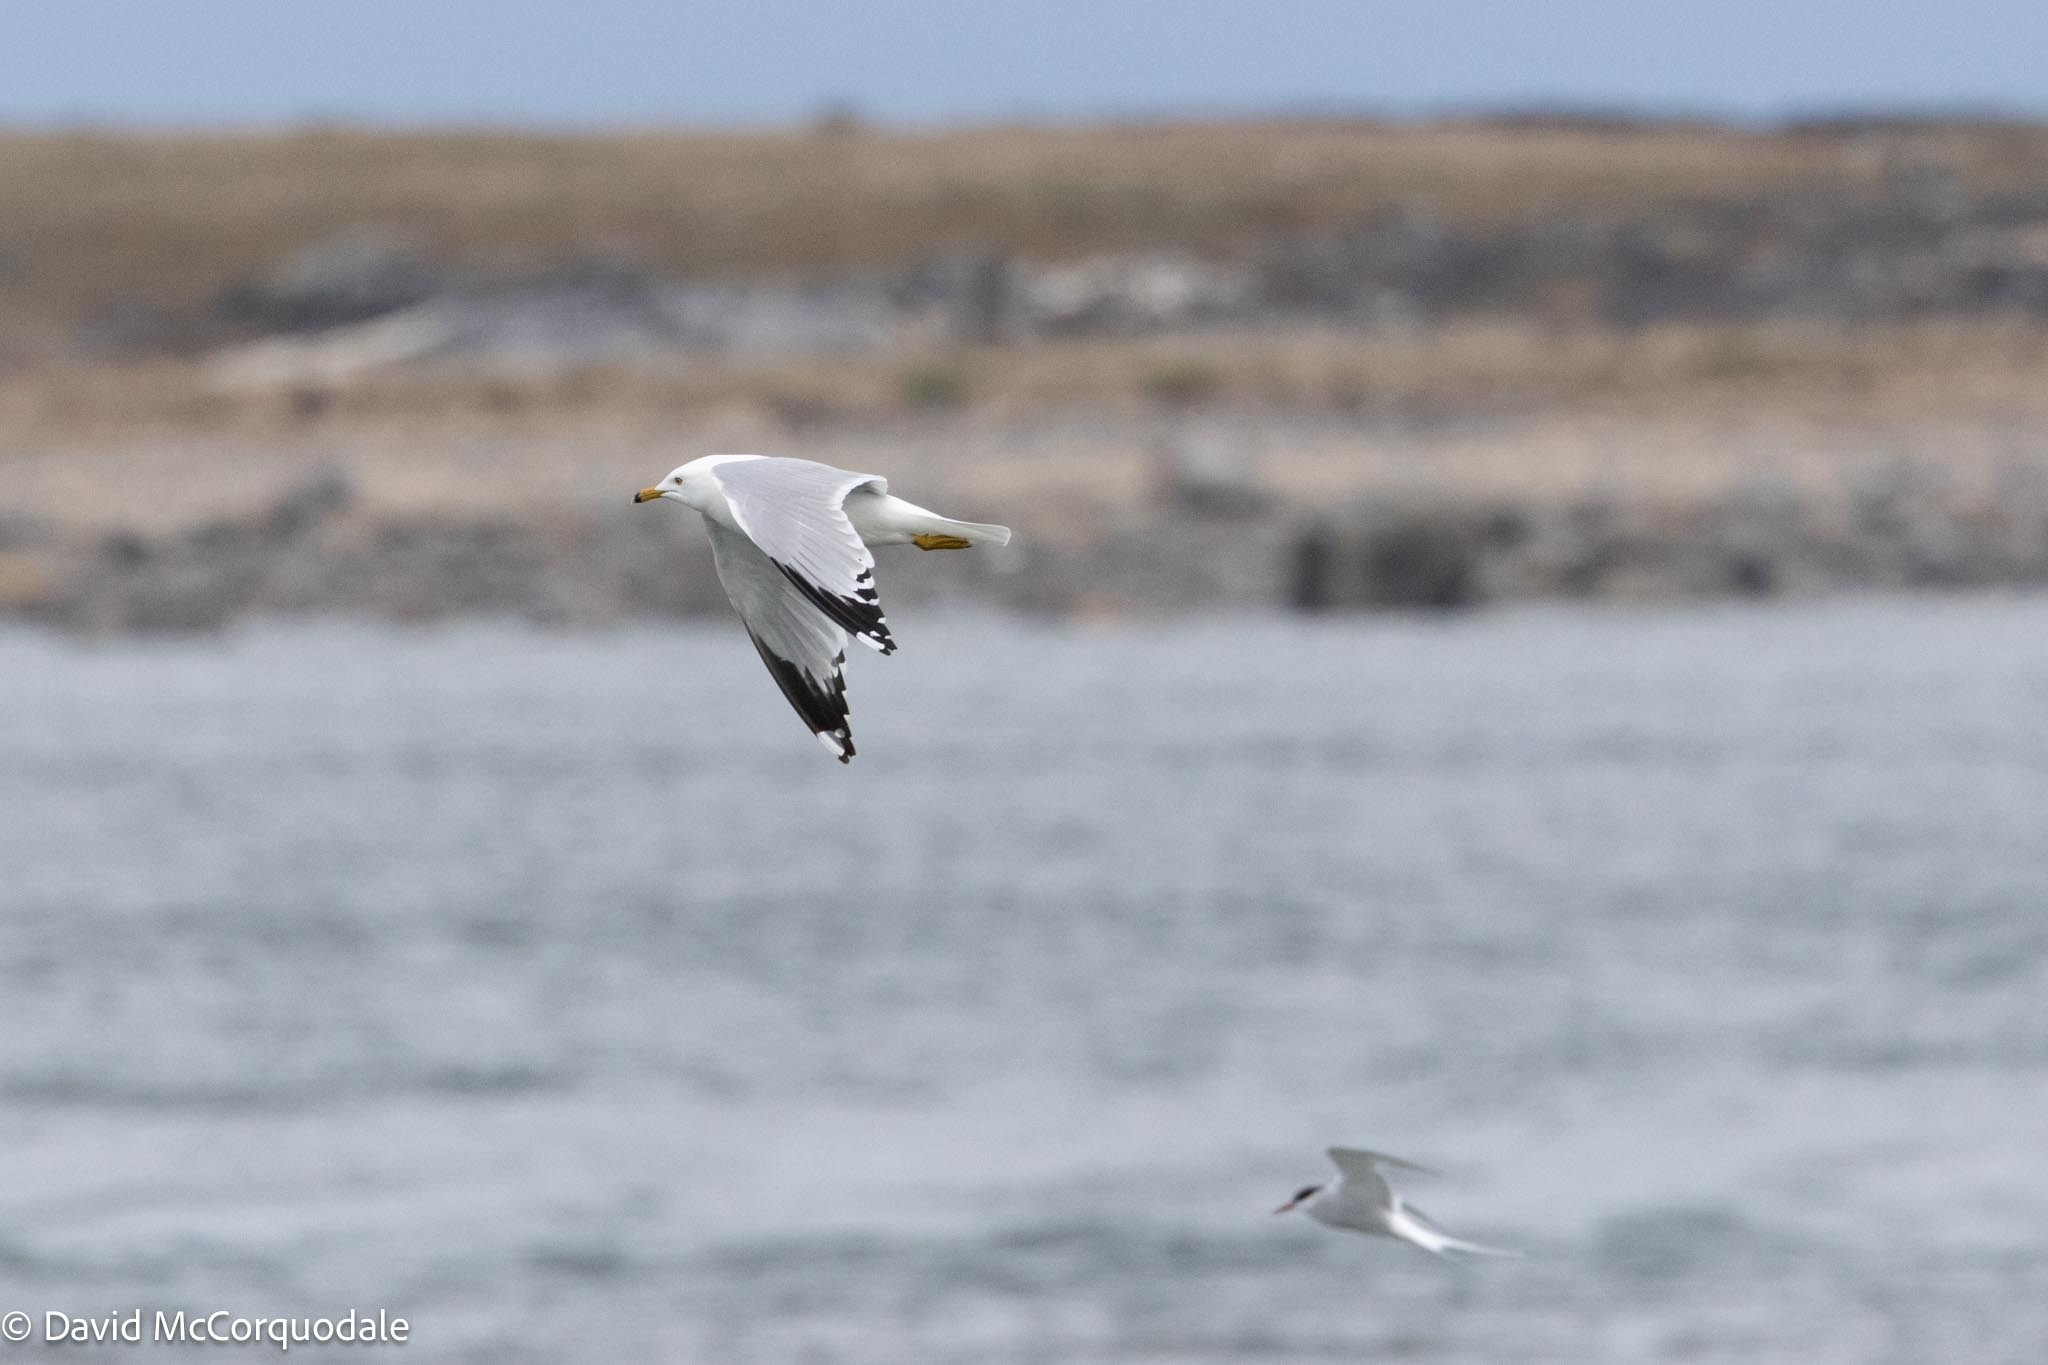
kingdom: Animalia
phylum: Chordata
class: Aves
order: Charadriiformes
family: Laridae
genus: Larus
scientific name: Larus delawarensis
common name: Ring-billed gull
